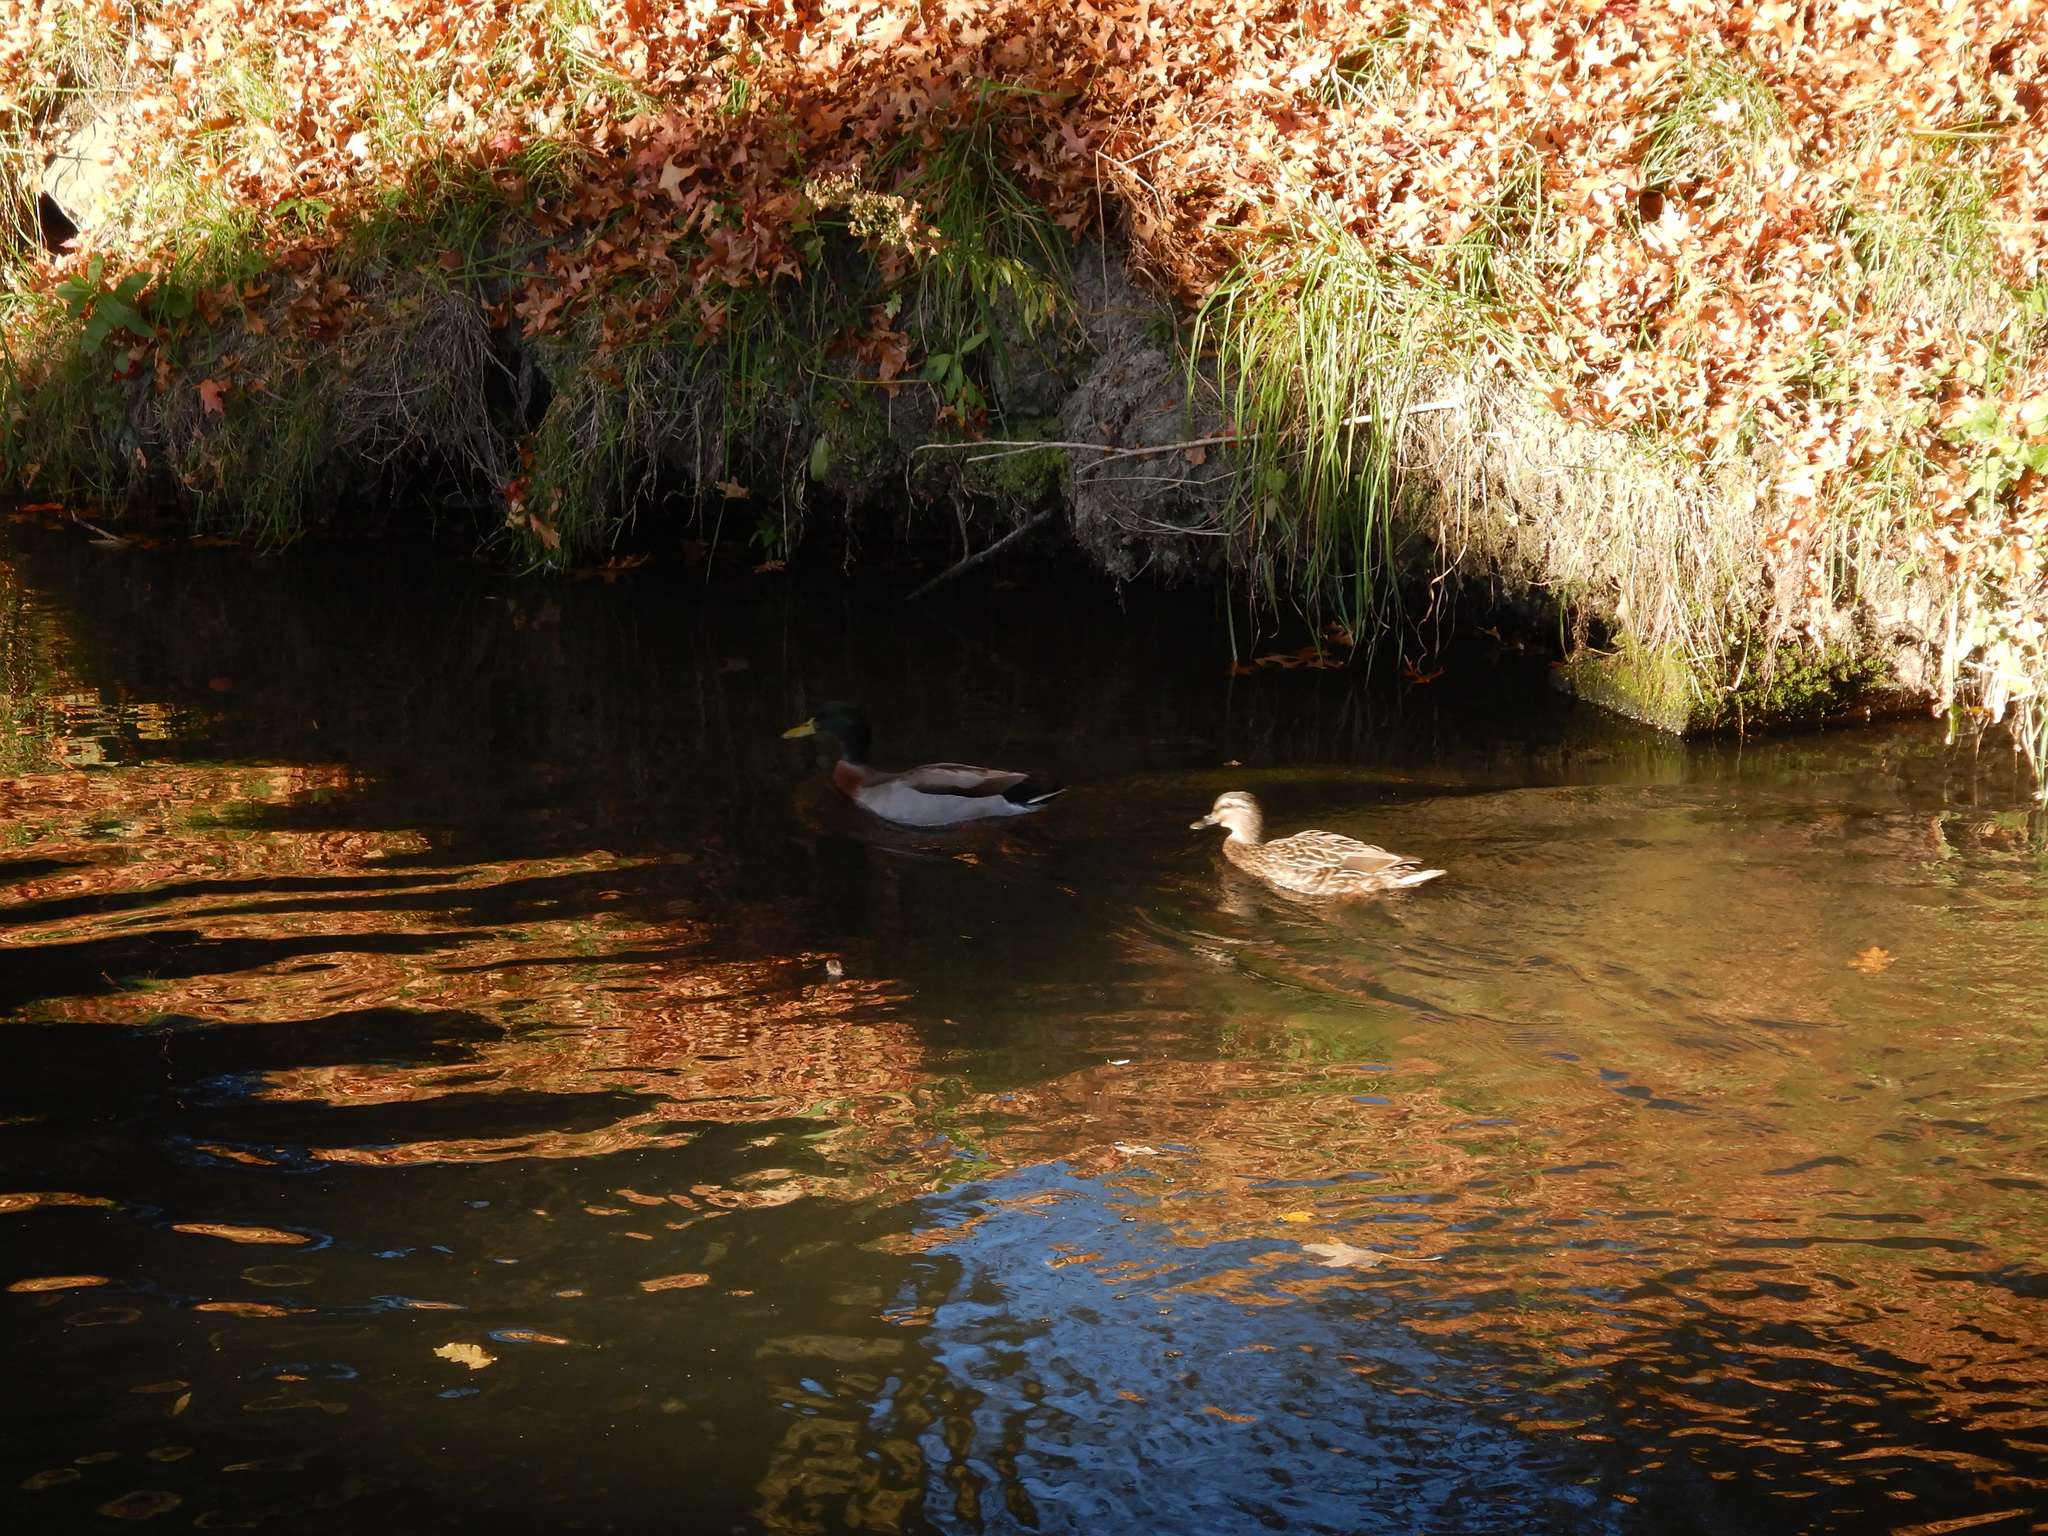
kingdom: Animalia
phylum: Chordata
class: Aves
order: Anseriformes
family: Anatidae
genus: Anas
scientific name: Anas platyrhynchos
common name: Mallard
